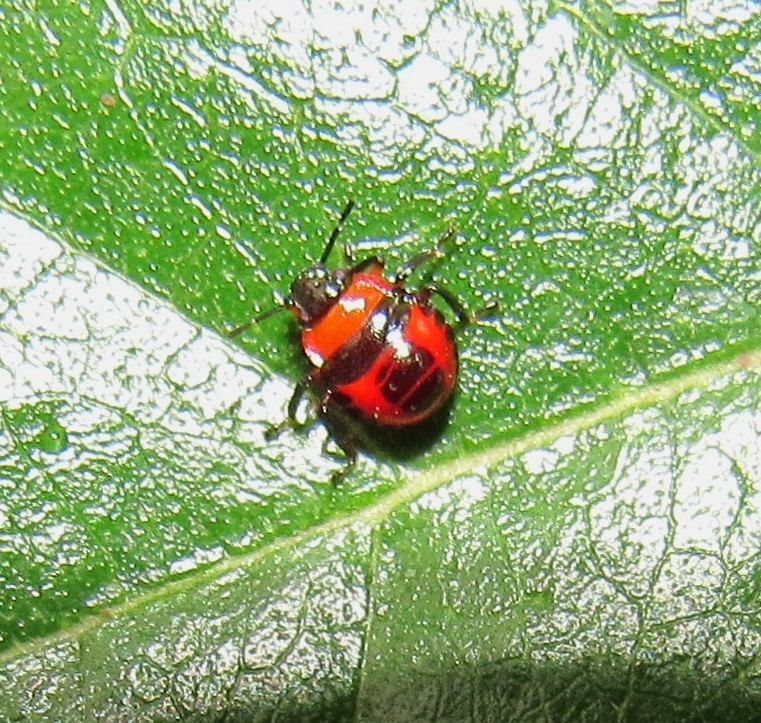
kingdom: Animalia
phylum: Arthropoda
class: Insecta
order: Hemiptera
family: Pentatomidae
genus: Supputius
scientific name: Supputius
